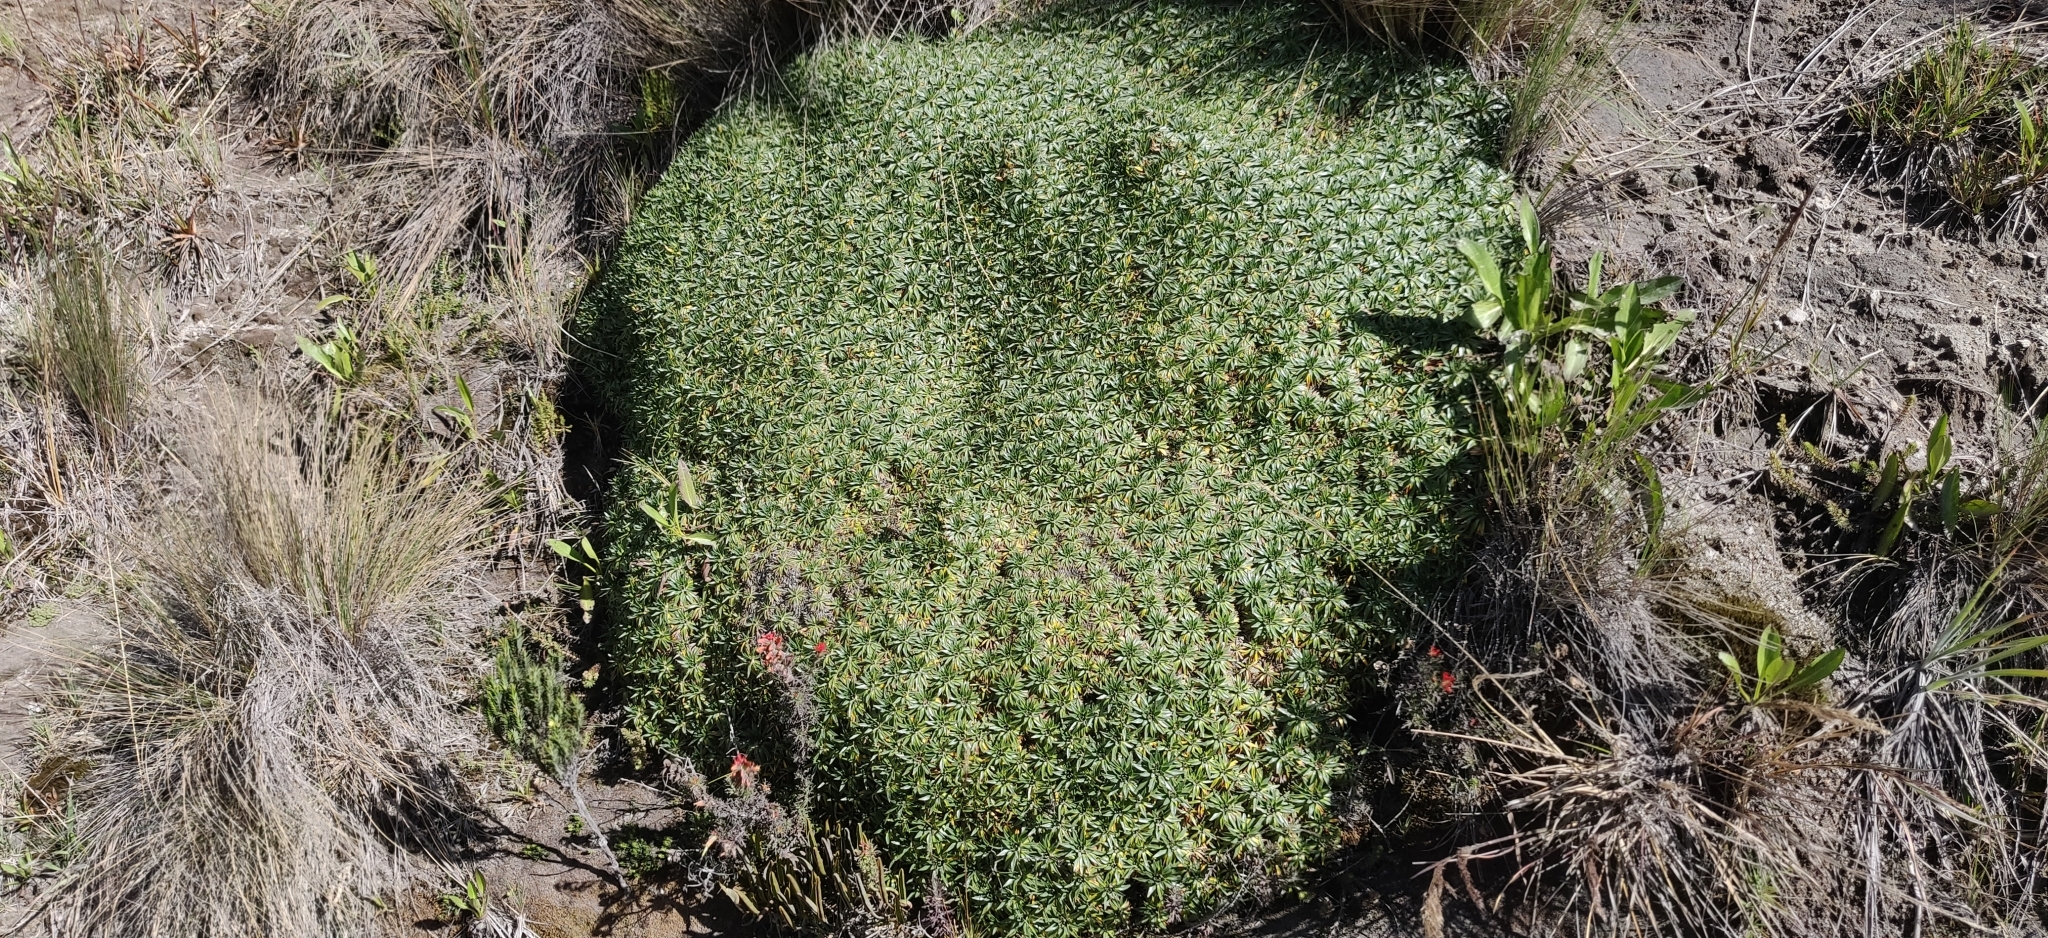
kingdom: Plantae
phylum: Tracheophyta
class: Magnoliopsida
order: Lamiales
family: Plantaginaceae
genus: Plantago
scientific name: Plantago rigida
